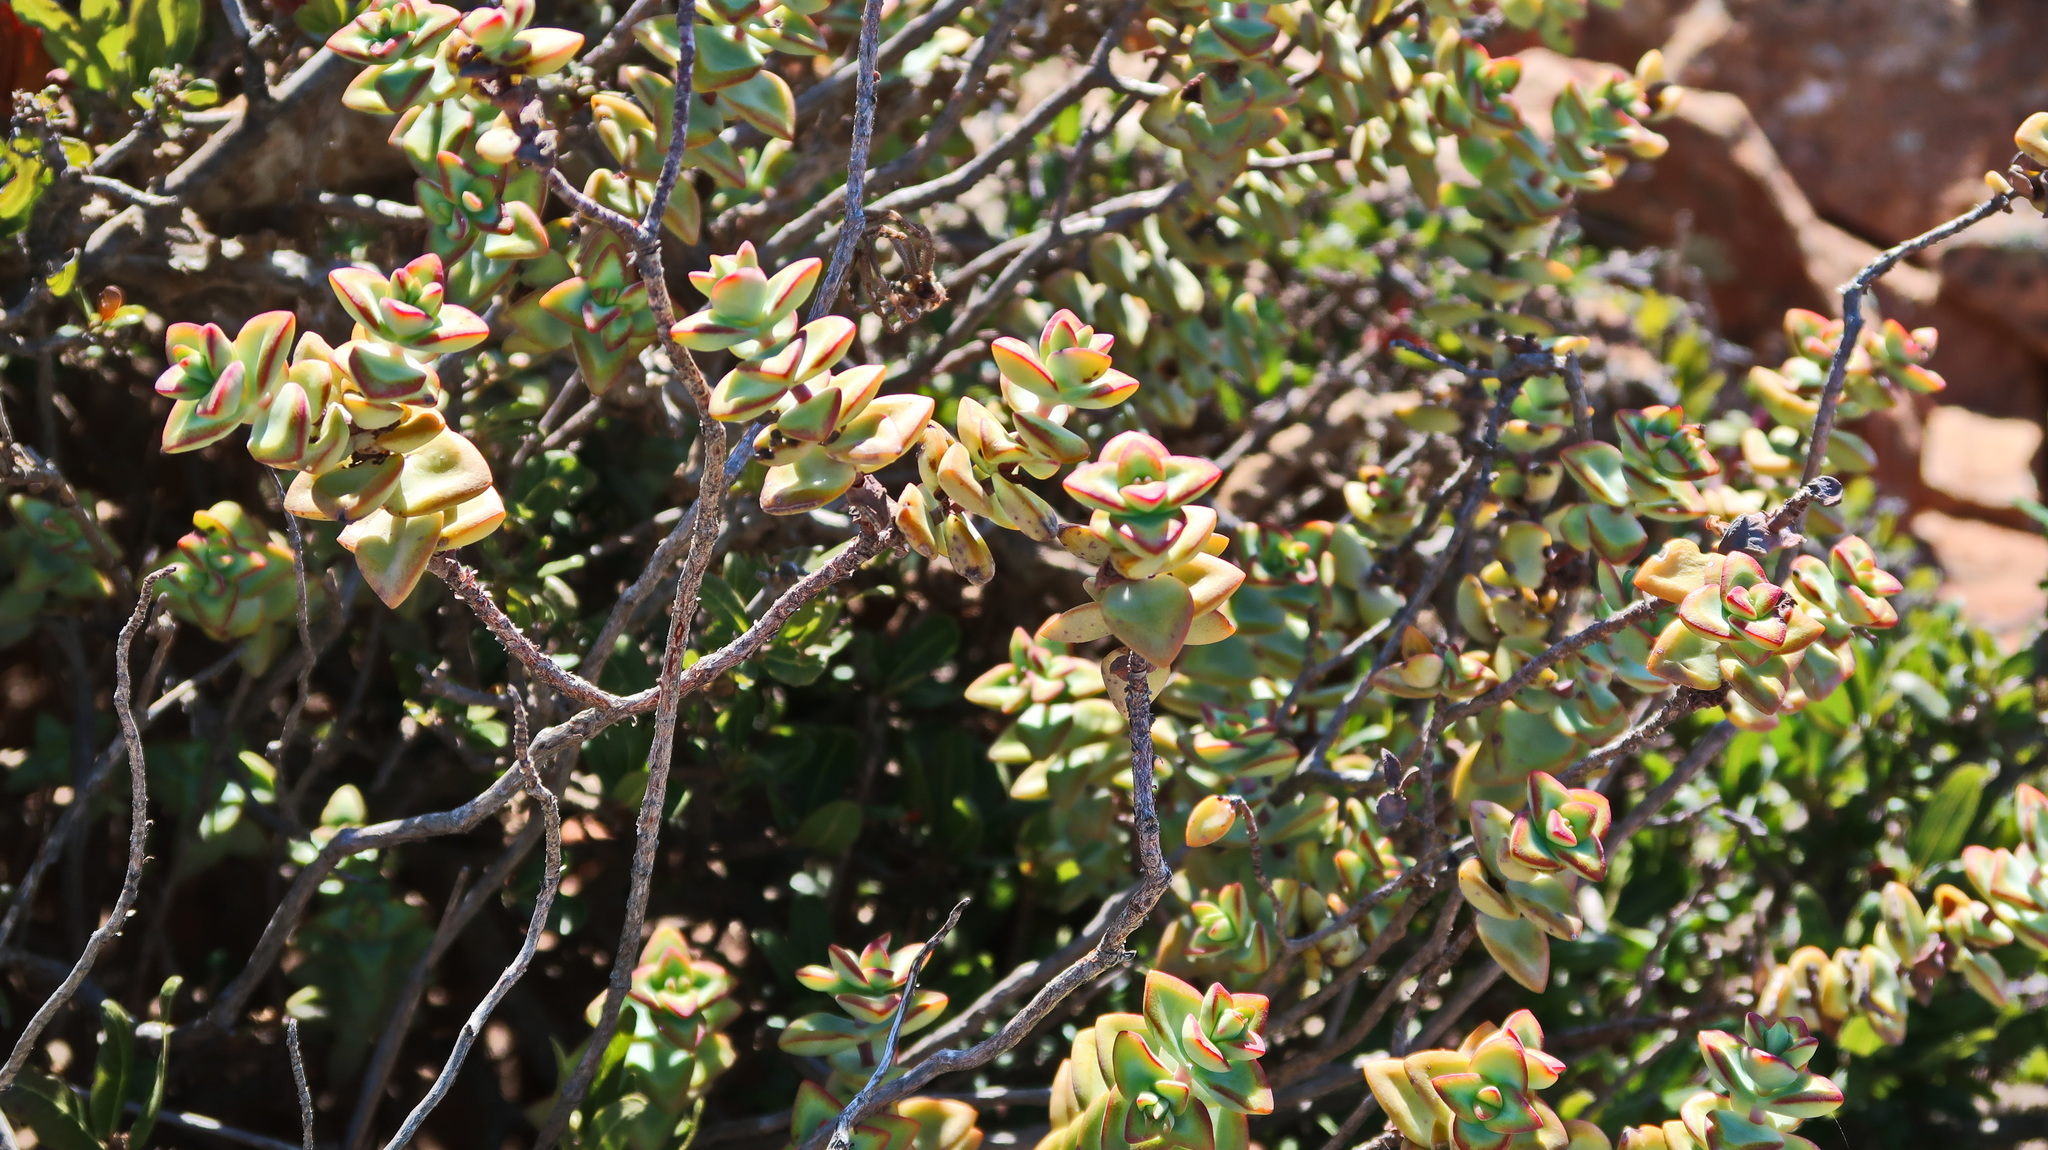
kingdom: Plantae
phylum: Tracheophyta
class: Magnoliopsida
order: Saxifragales
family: Crassulaceae
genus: Crassula
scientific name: Crassula rupestris
